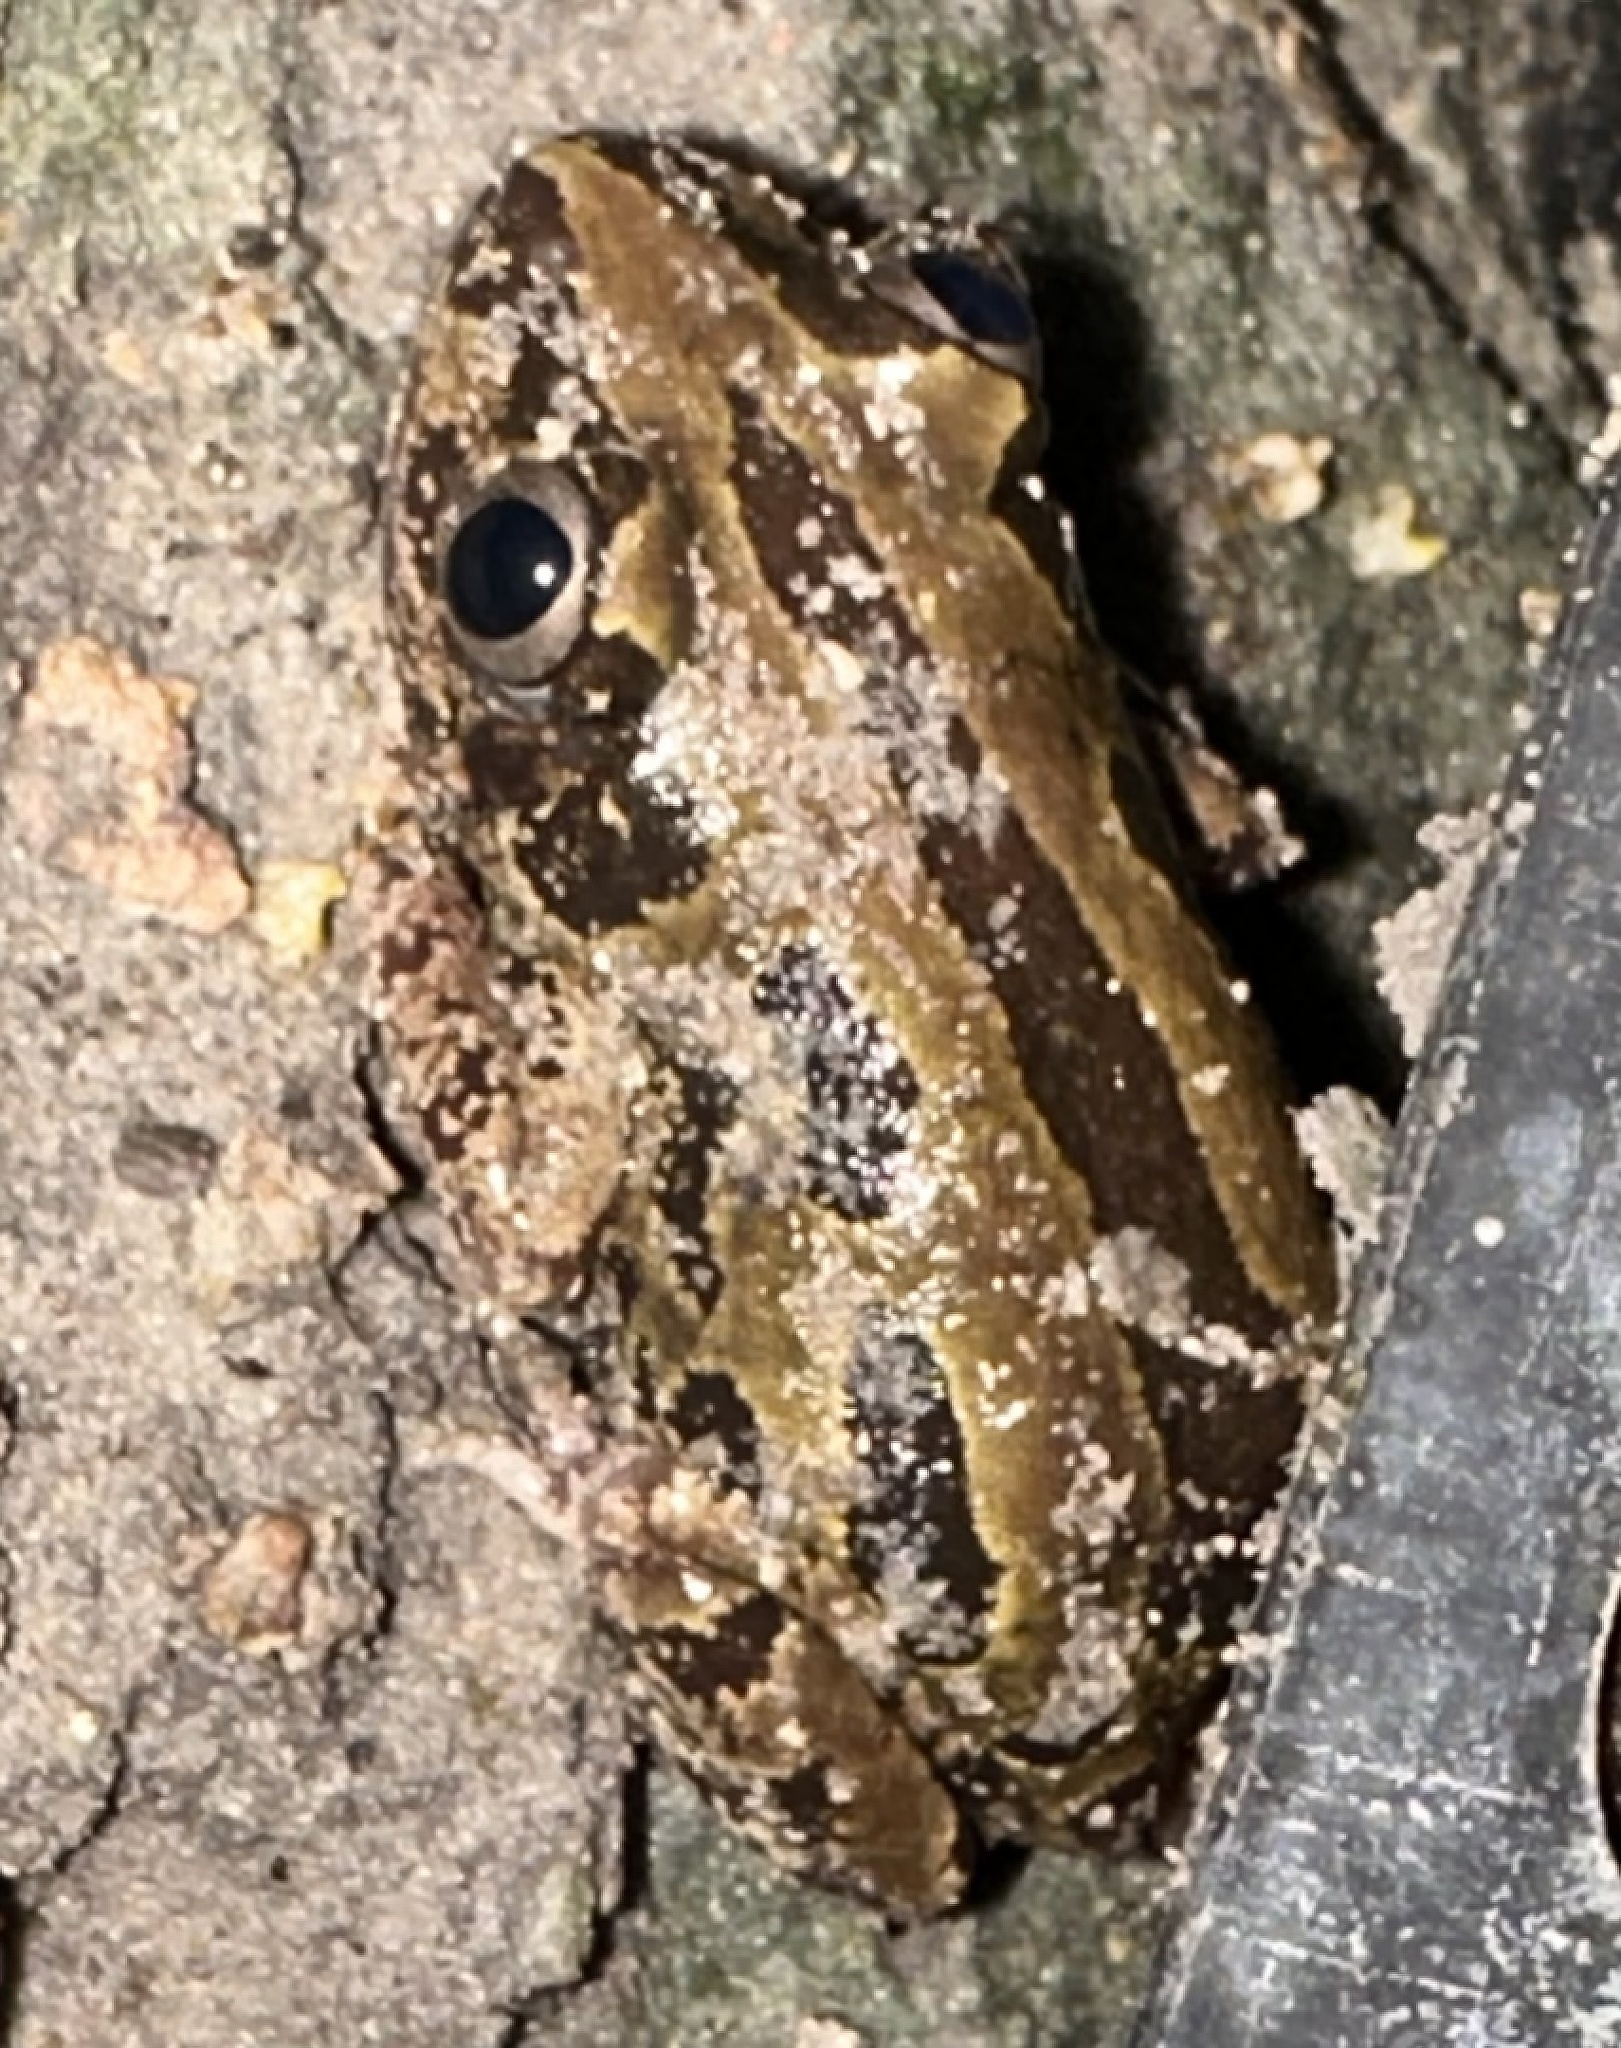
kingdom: Animalia
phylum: Chordata
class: Amphibia
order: Anura
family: Hyperoliidae
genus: Kassina
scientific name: Kassina senegalensis
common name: Senegal land frog
